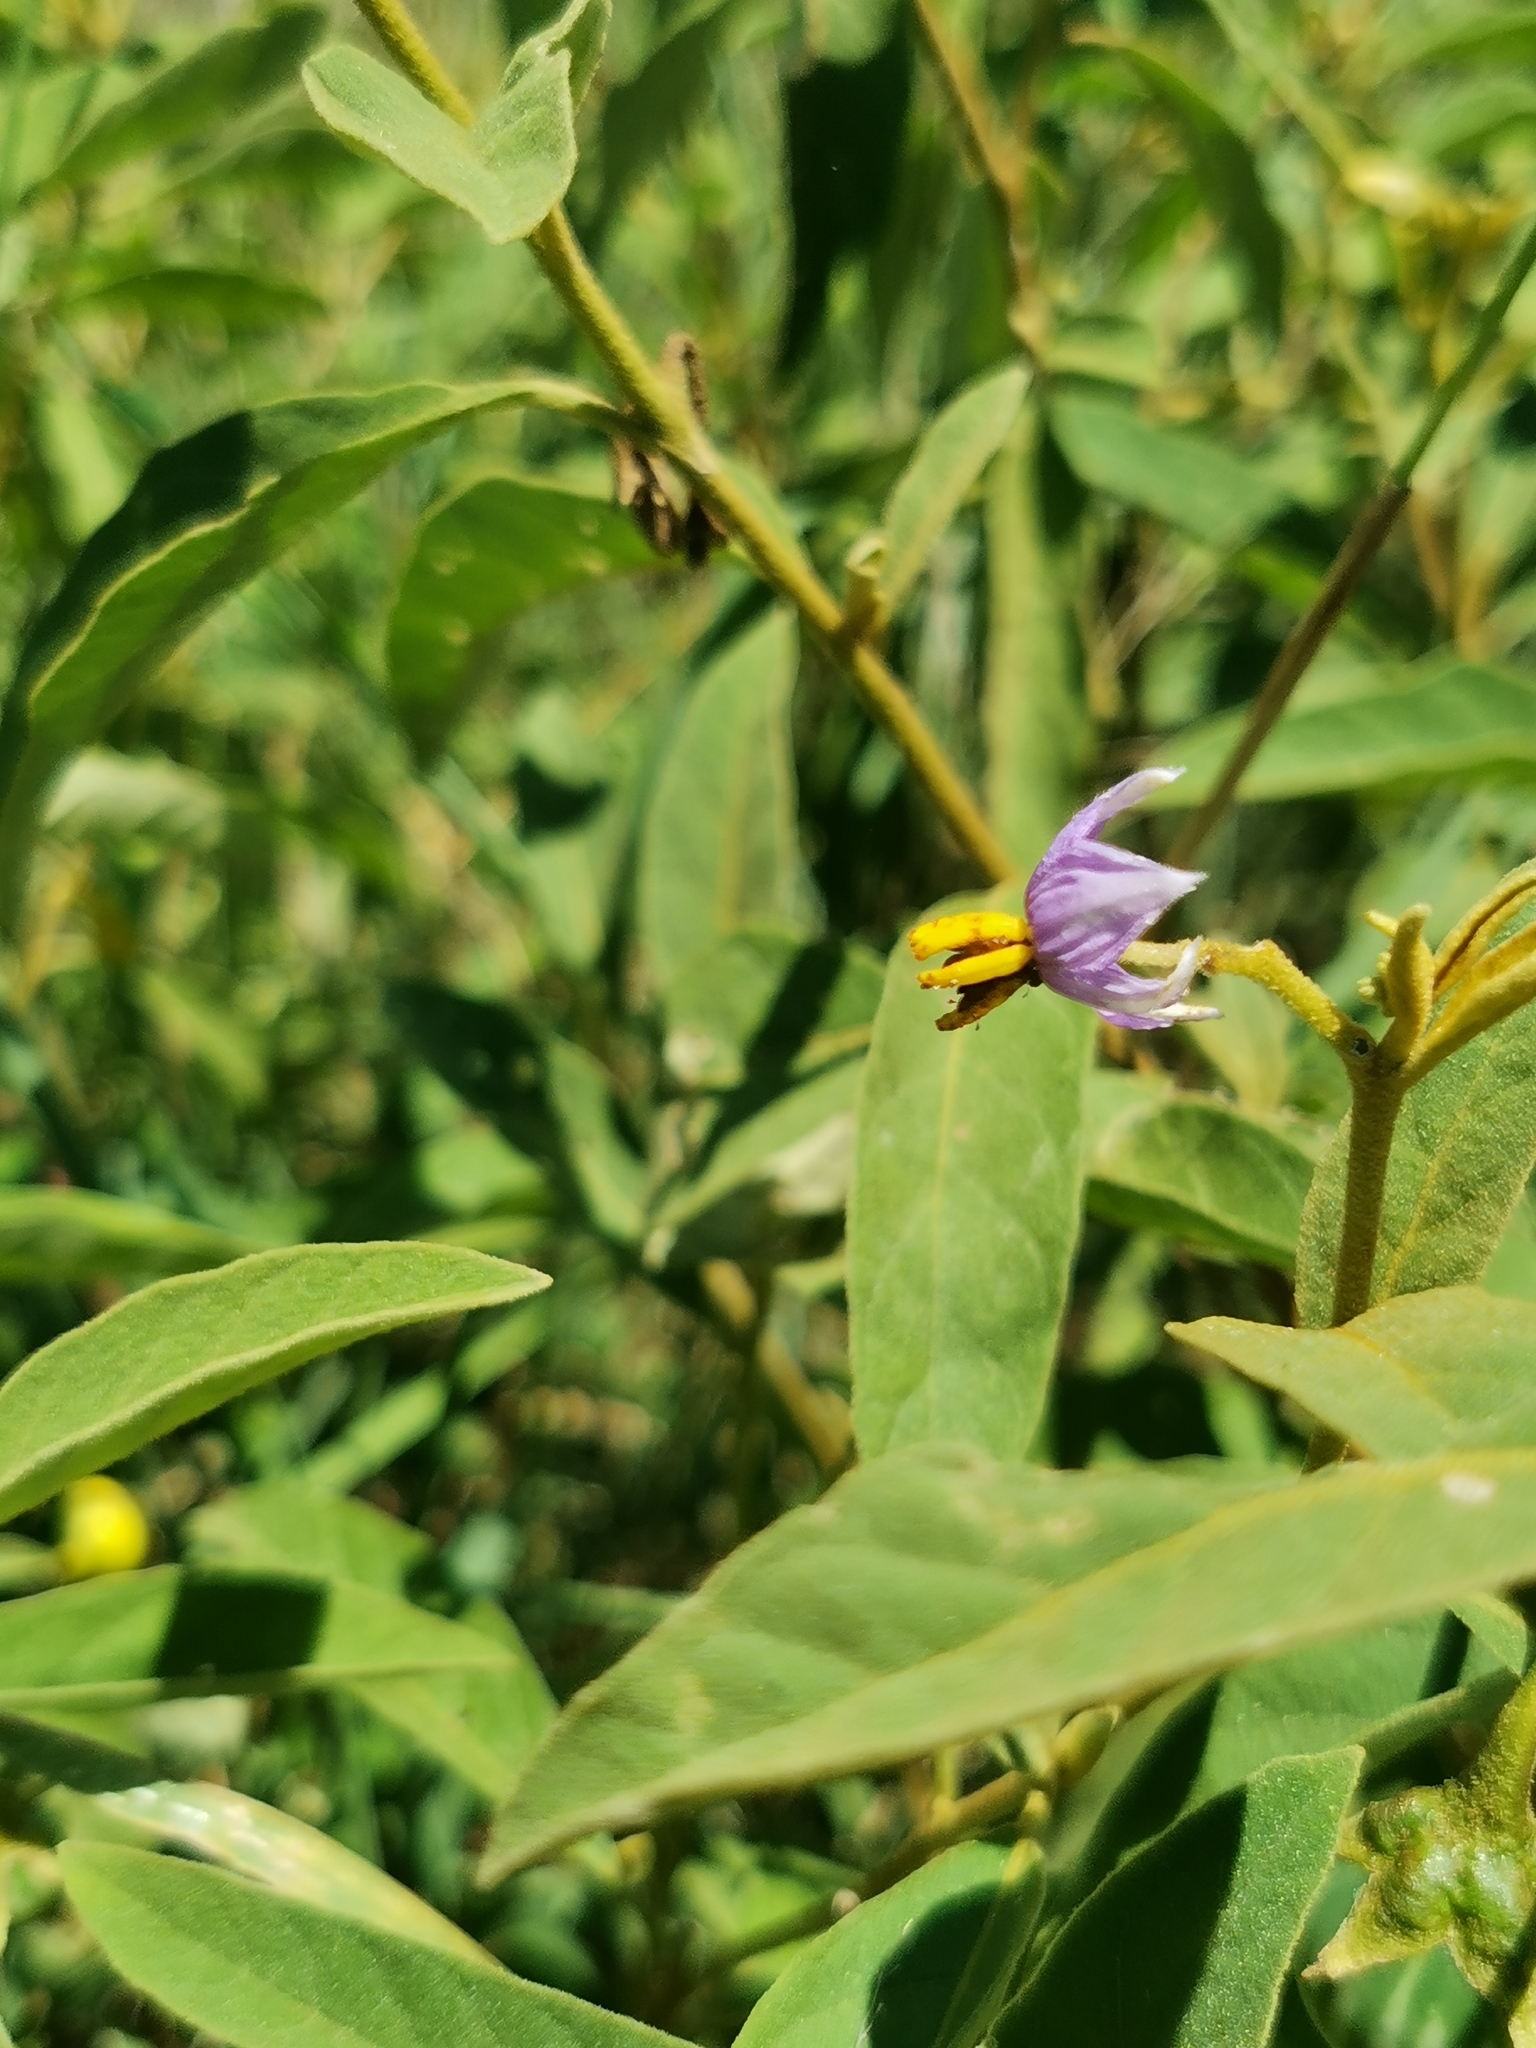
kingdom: Plantae
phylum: Tracheophyta
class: Magnoliopsida
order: Solanales
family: Solanaceae
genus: Solanum
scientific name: Solanum campylacanthum
